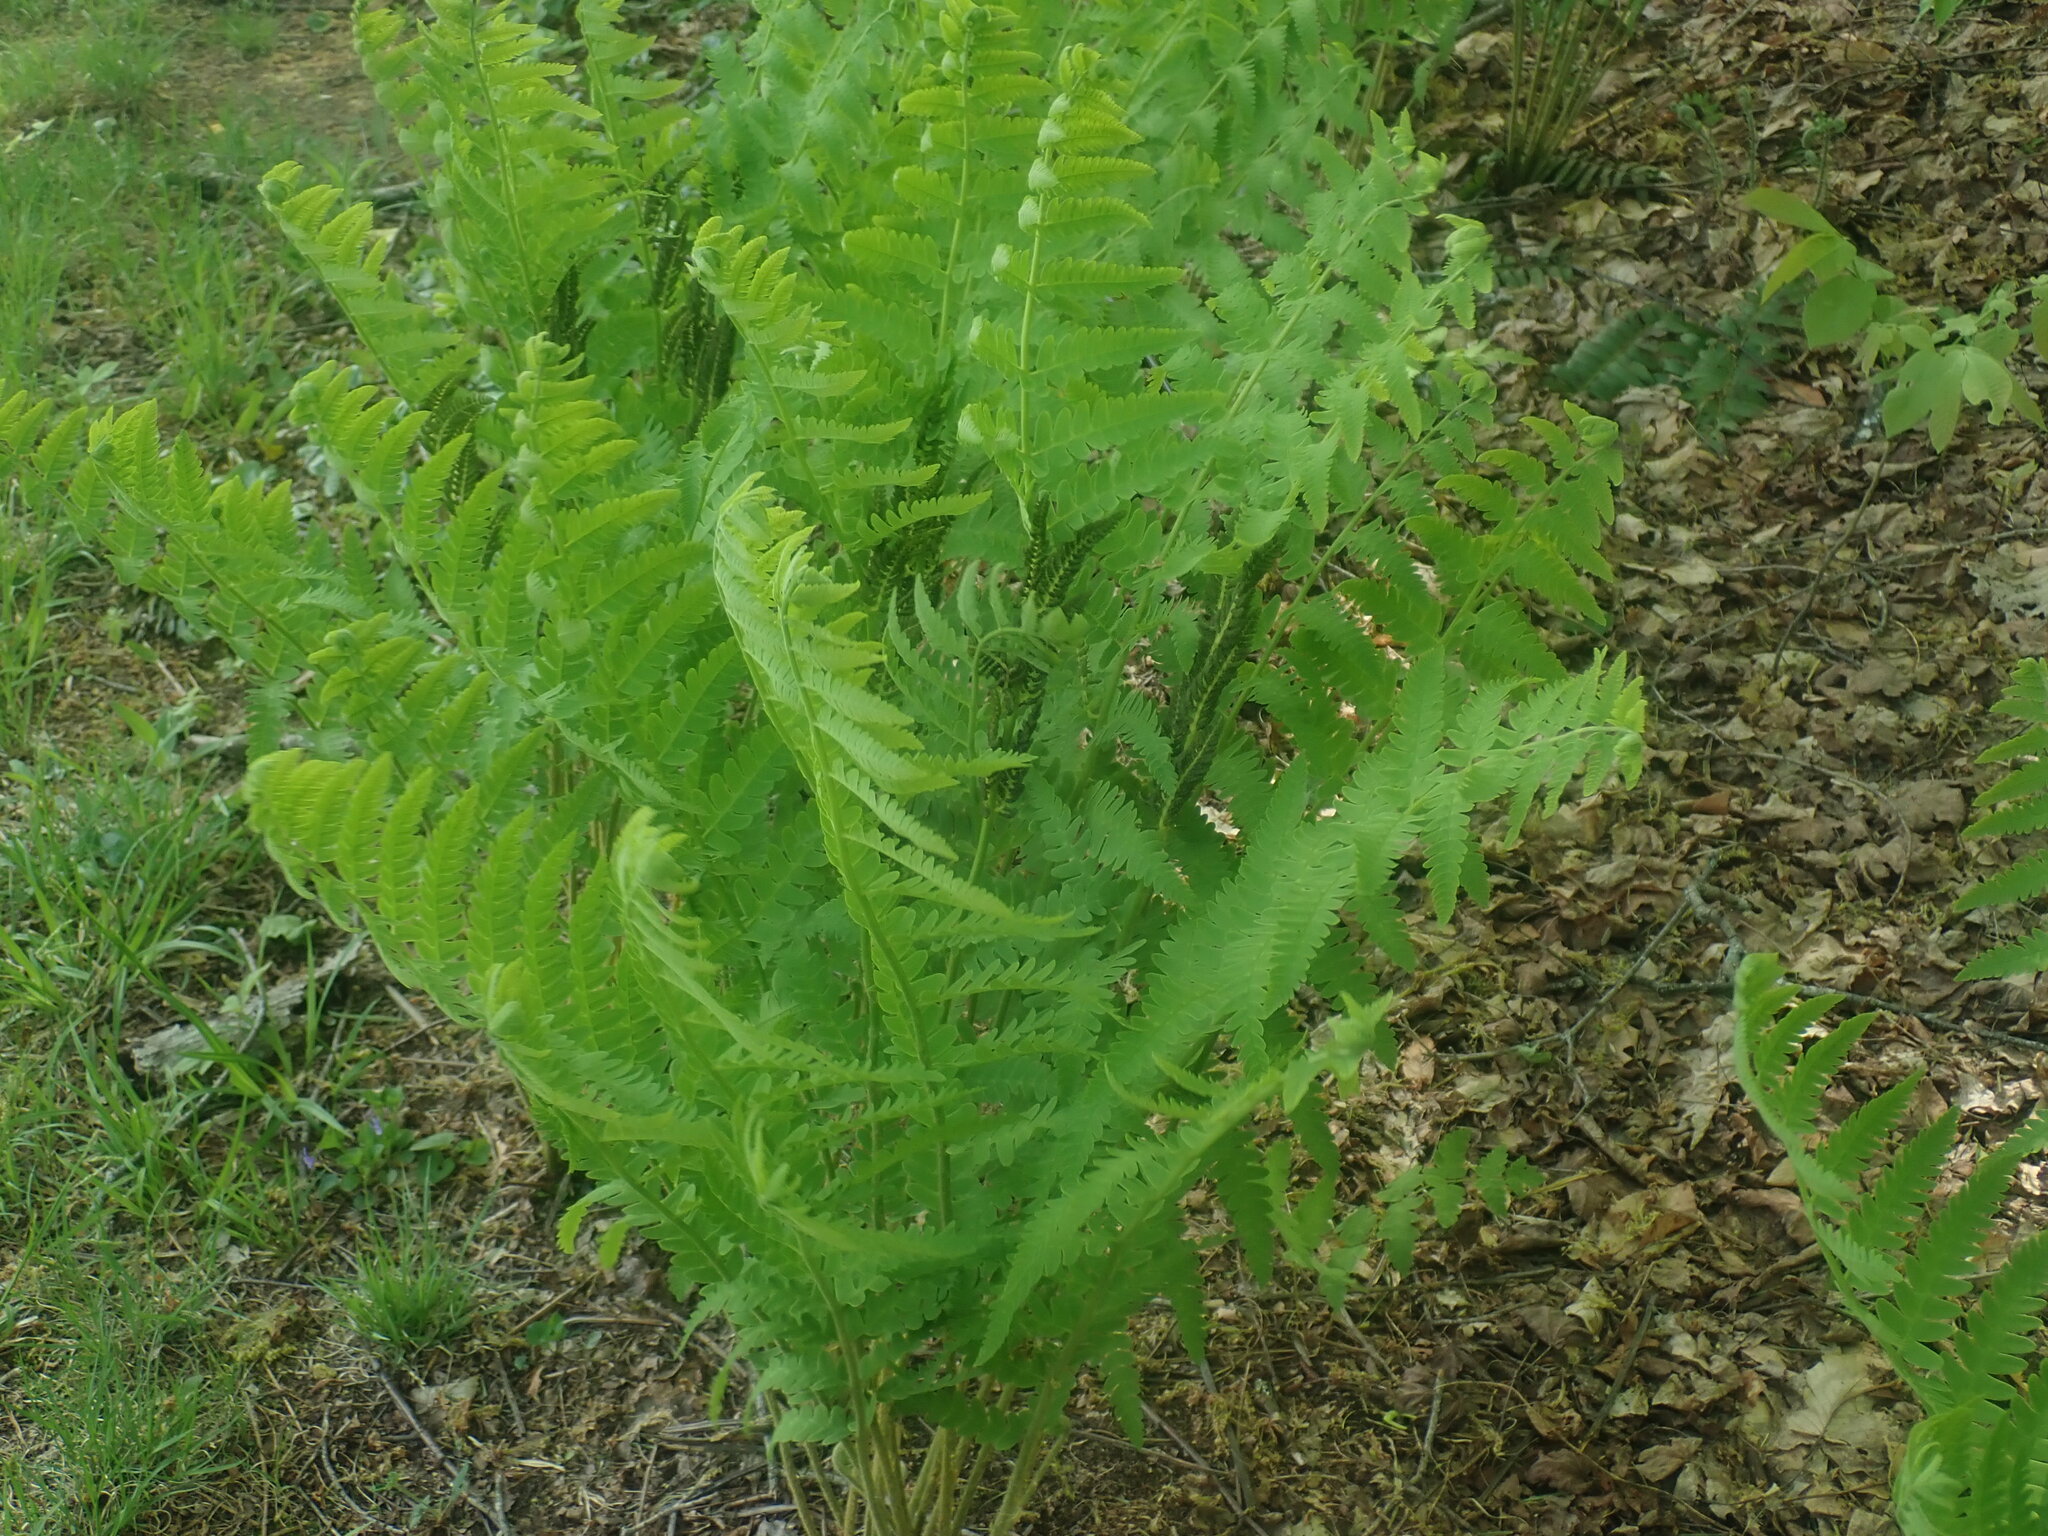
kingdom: Plantae
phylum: Tracheophyta
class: Polypodiopsida
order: Osmundales
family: Osmundaceae
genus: Claytosmunda
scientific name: Claytosmunda claytoniana
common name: Clayton's fern
